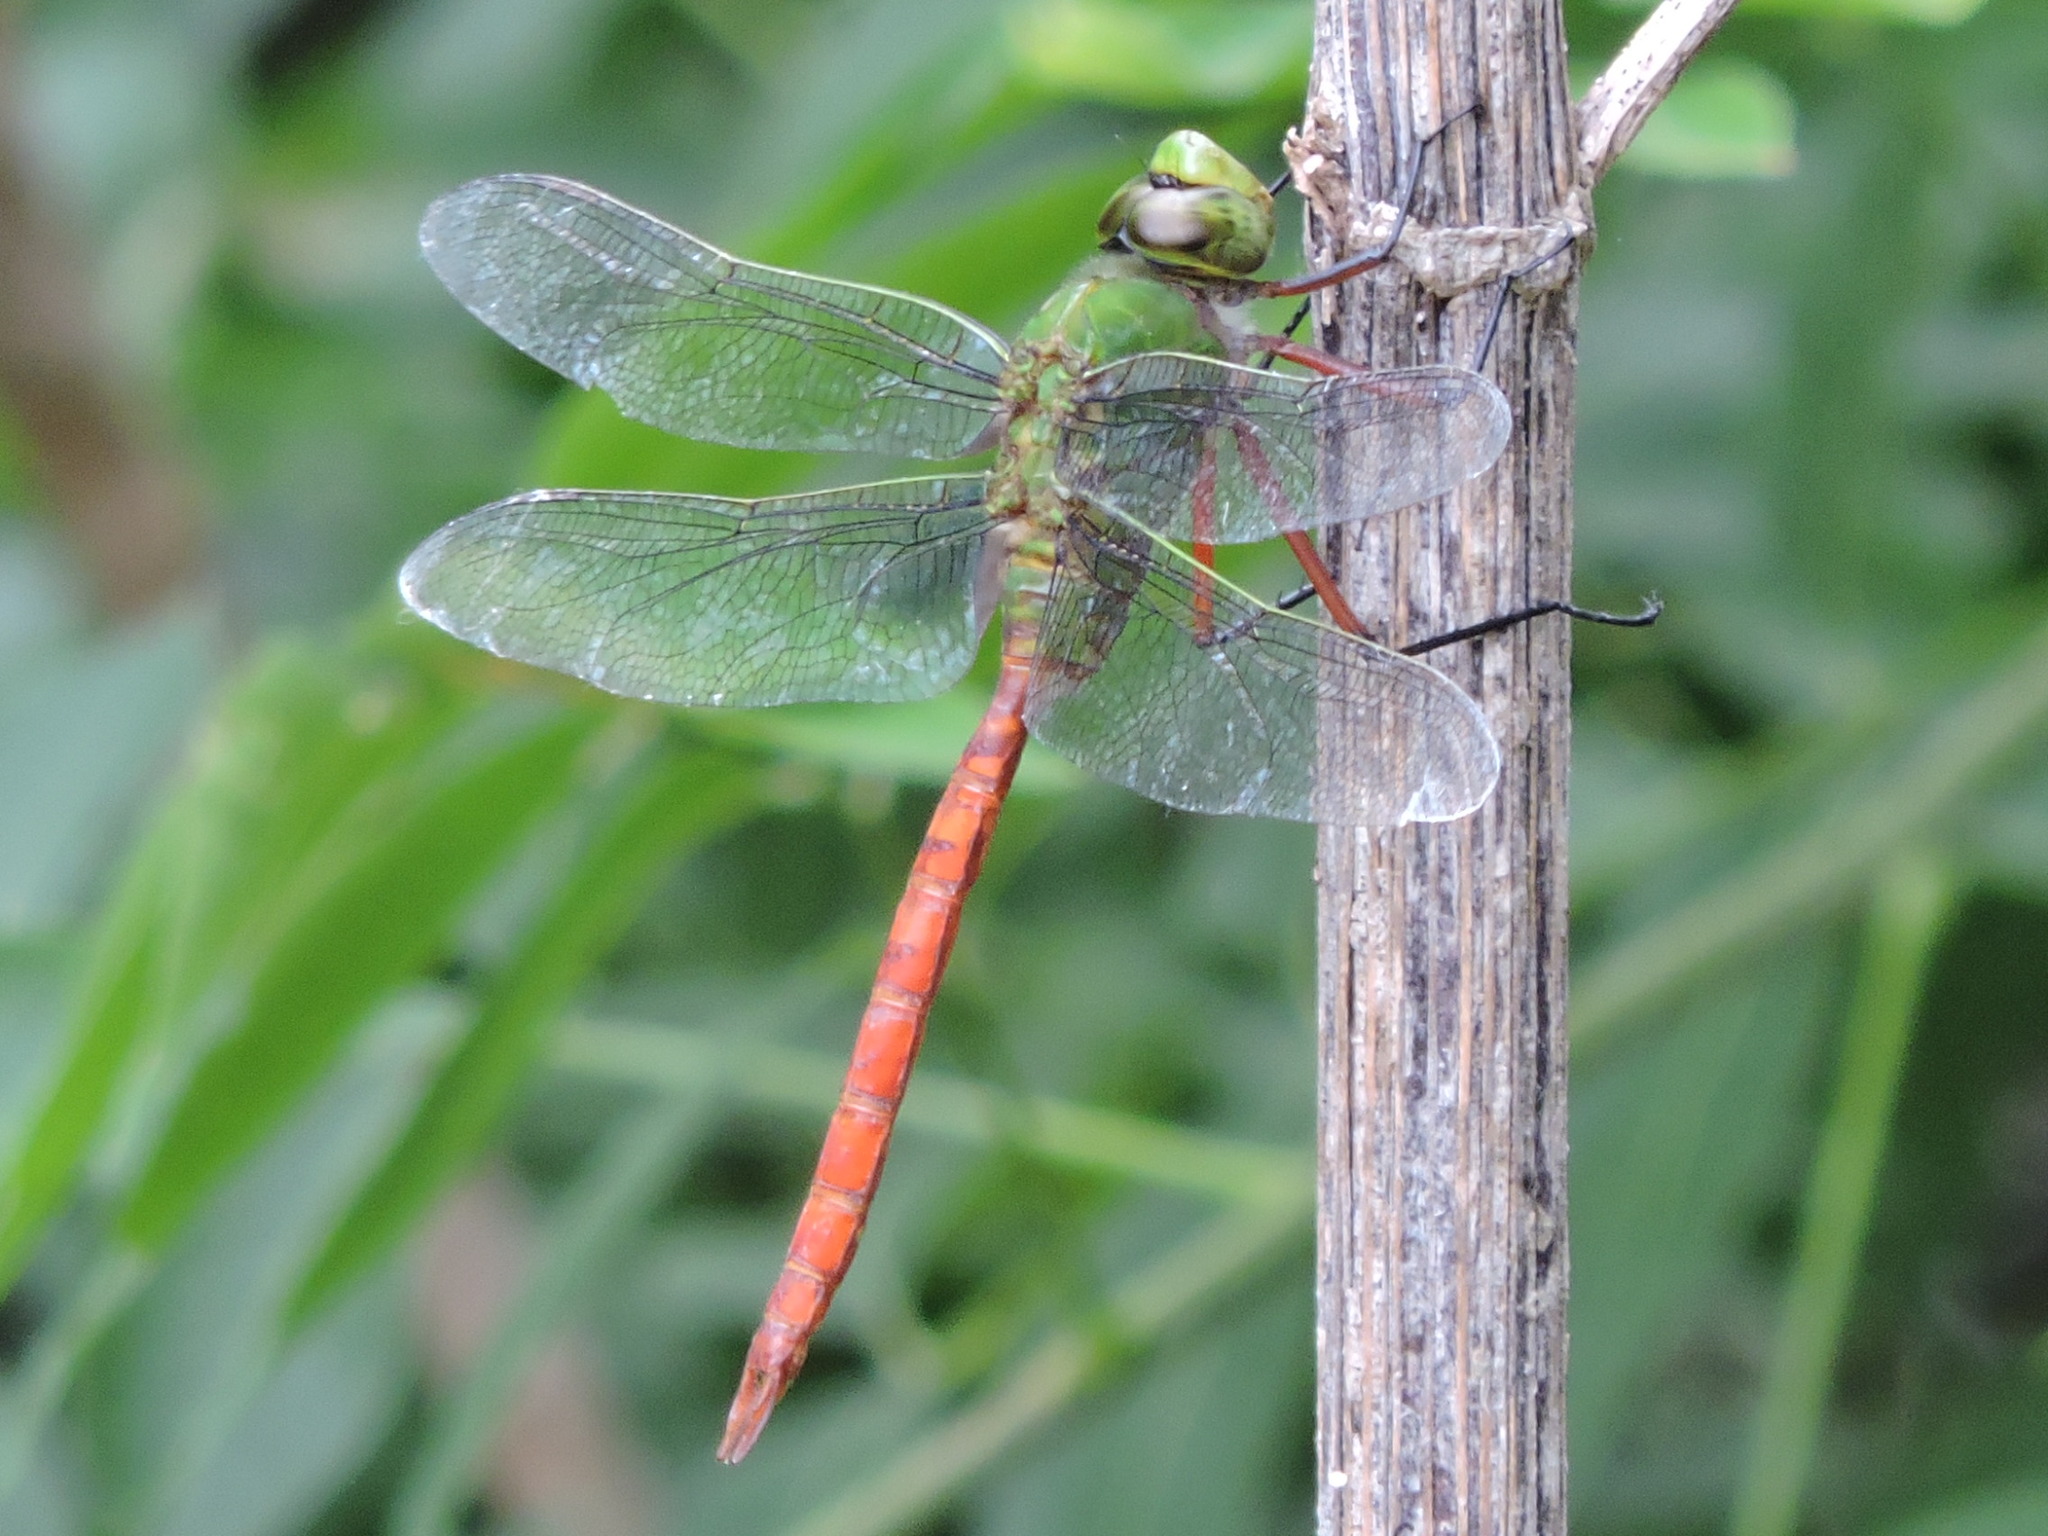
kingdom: Animalia
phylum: Arthropoda
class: Insecta
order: Odonata
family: Aeshnidae
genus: Anax
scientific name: Anax longipes
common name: Comet darner
